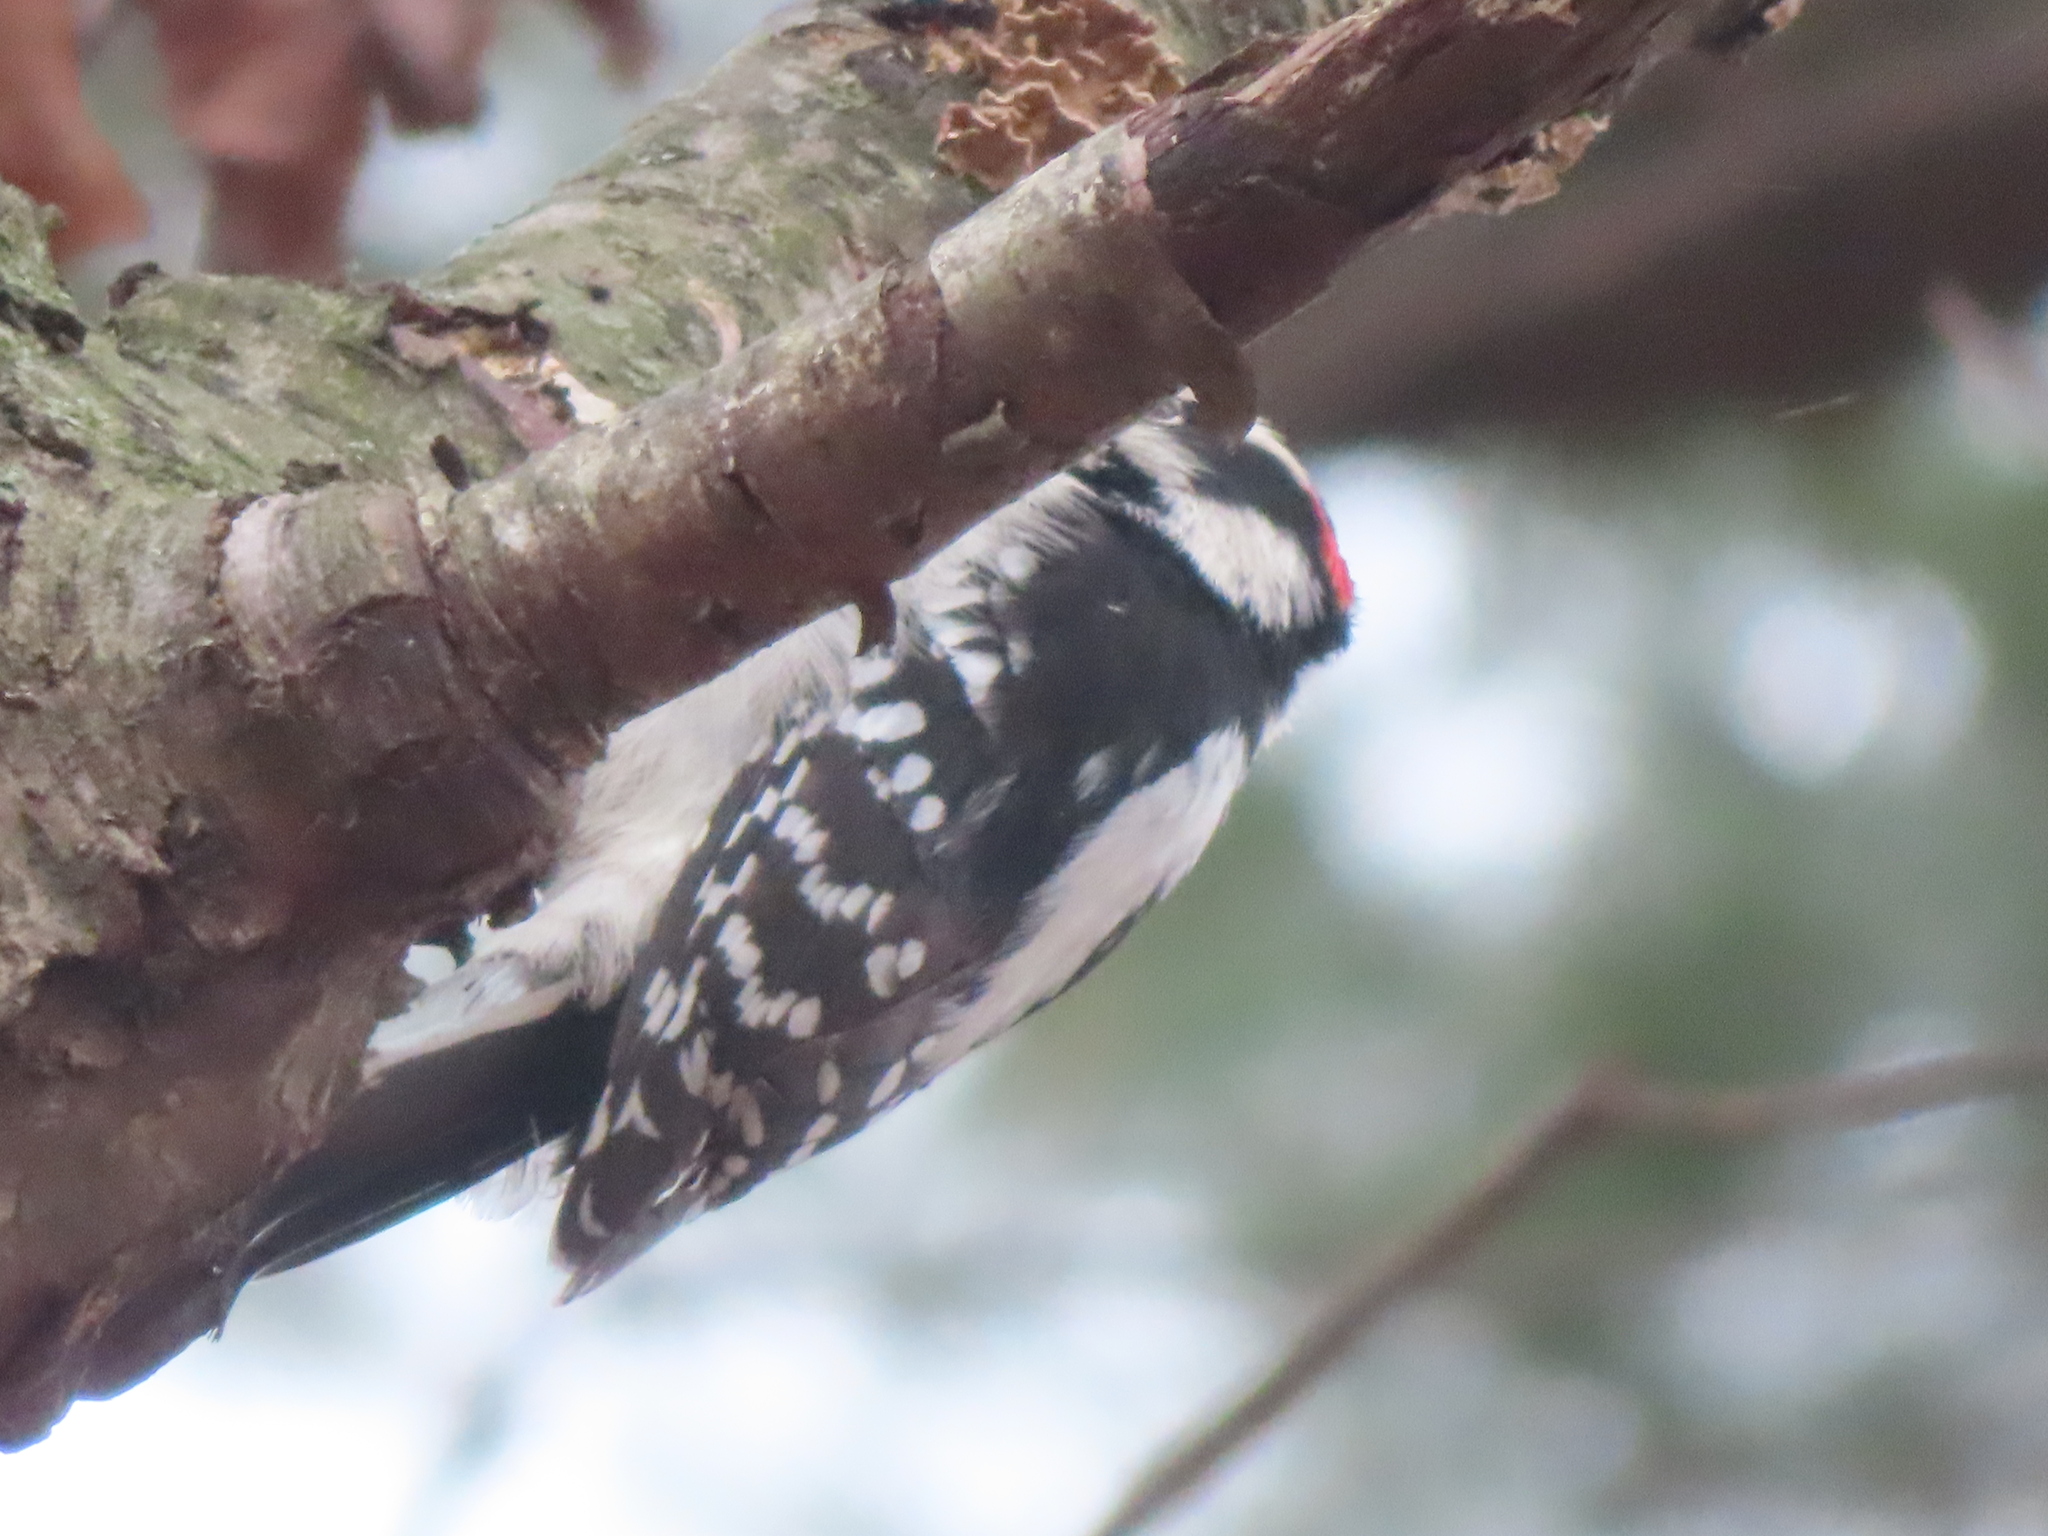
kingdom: Animalia
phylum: Chordata
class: Aves
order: Piciformes
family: Picidae
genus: Dryobates
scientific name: Dryobates pubescens
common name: Downy woodpecker
